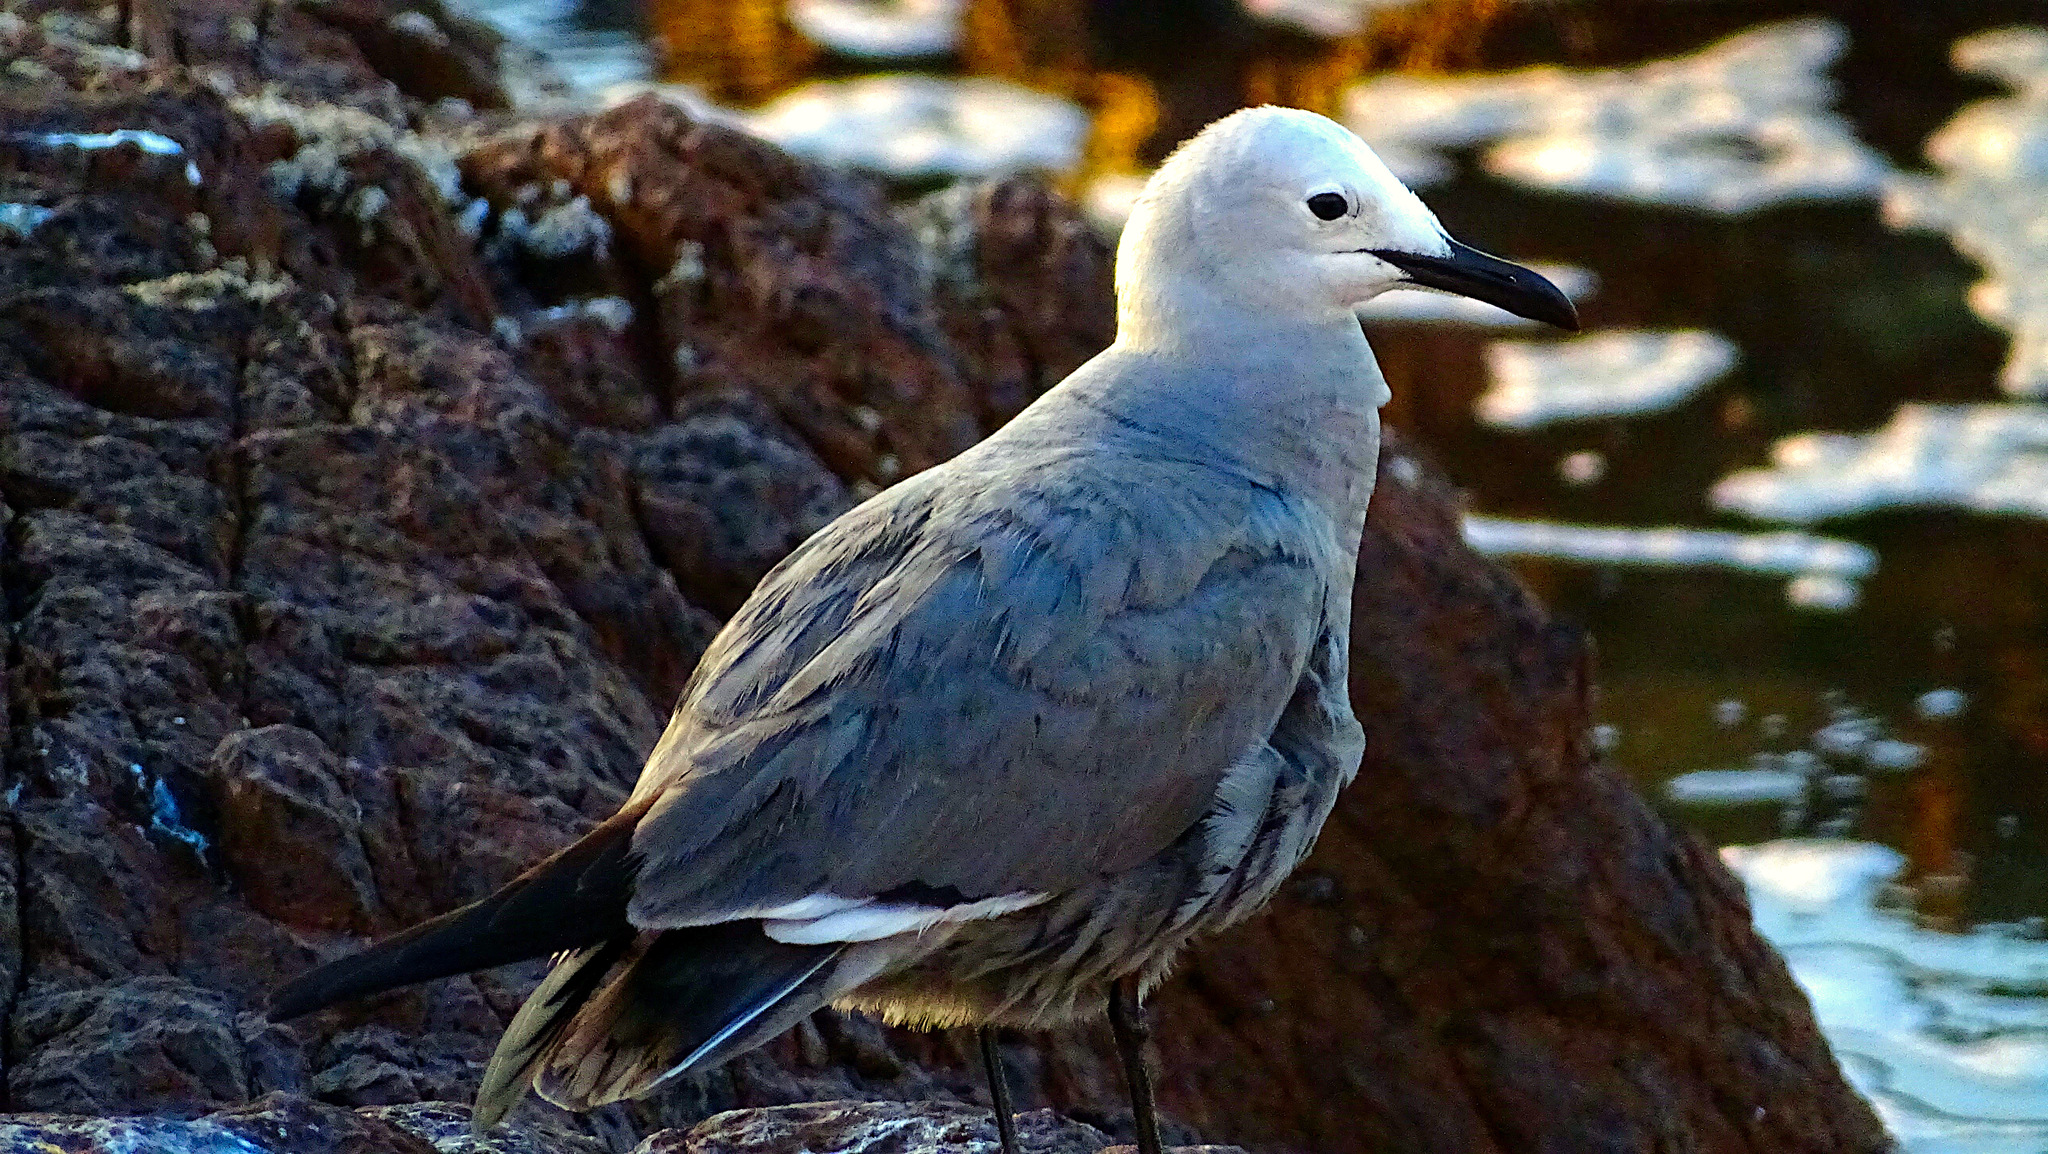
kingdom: Animalia
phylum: Chordata
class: Aves
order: Charadriiformes
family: Laridae
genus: Leucophaeus
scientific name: Leucophaeus modestus
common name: Gray gull
